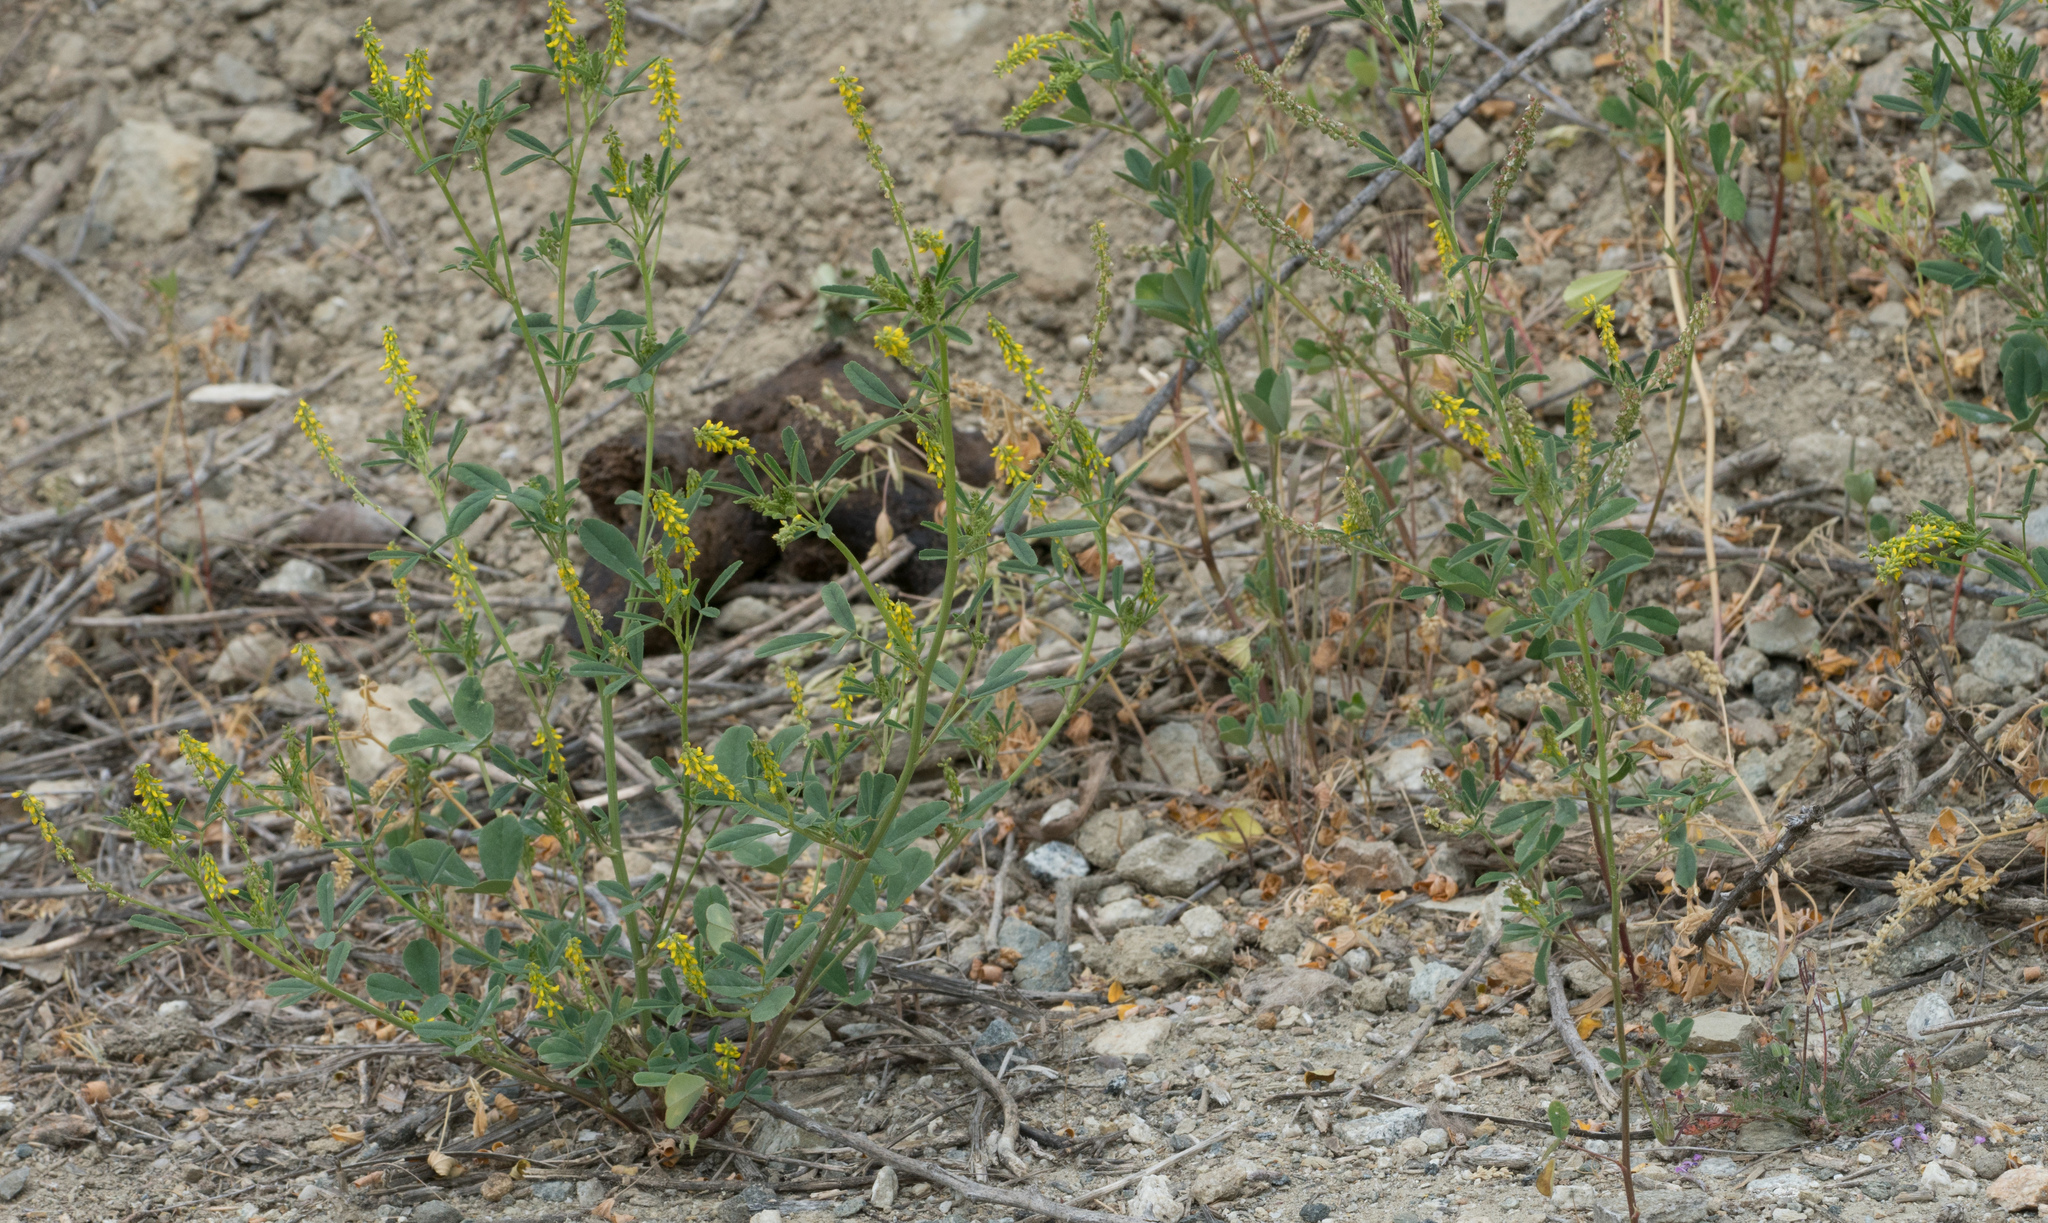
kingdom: Plantae
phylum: Tracheophyta
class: Magnoliopsida
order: Fabales
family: Fabaceae
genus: Melilotus
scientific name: Melilotus indicus
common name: Small melilot
